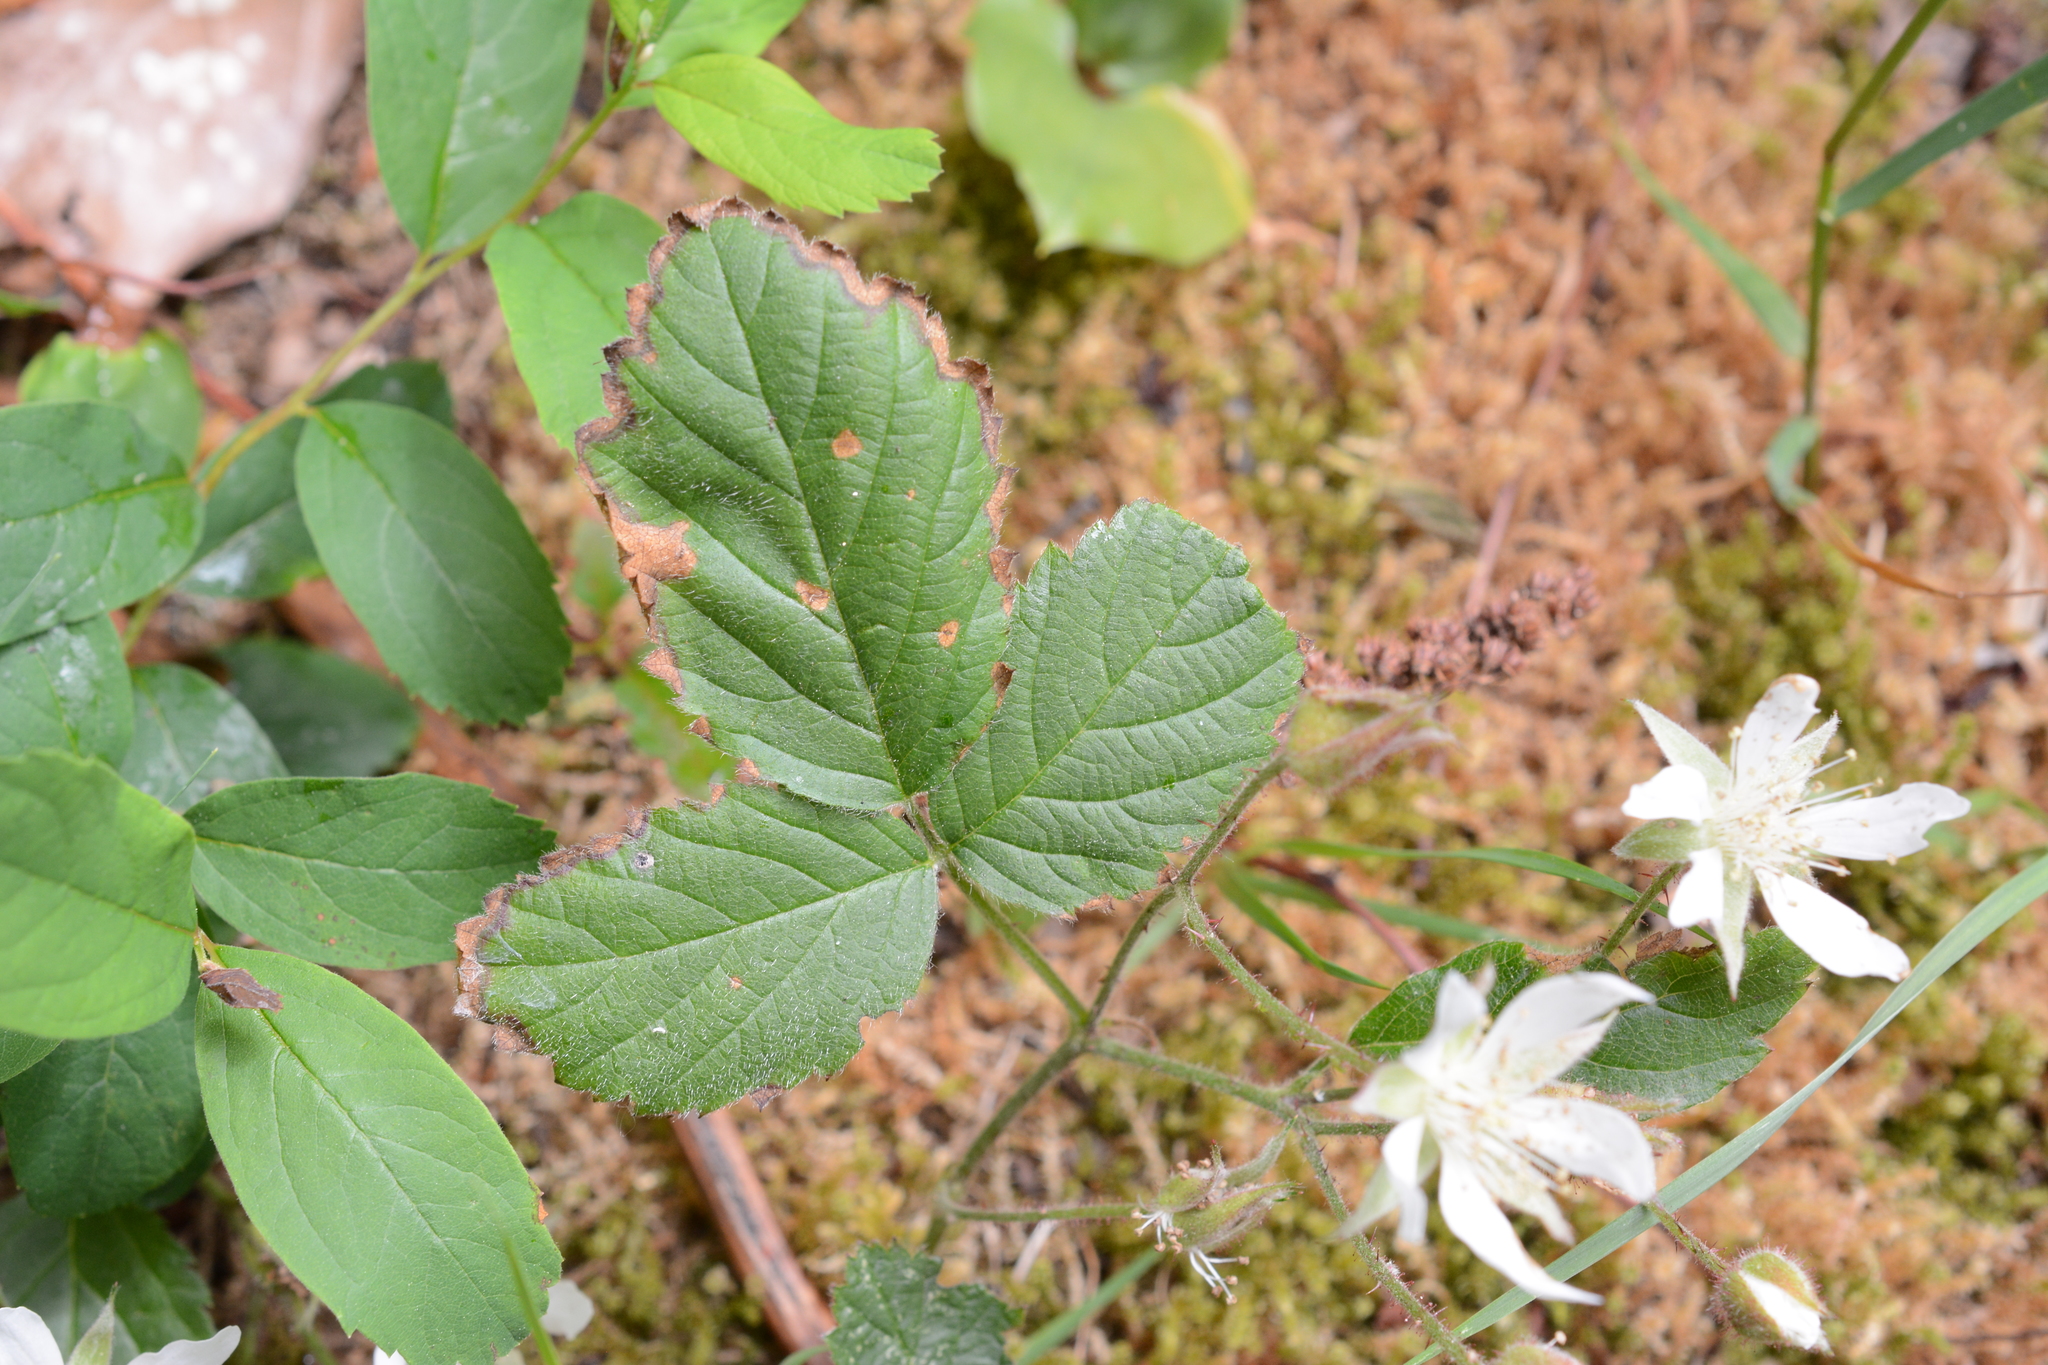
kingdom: Plantae
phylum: Tracheophyta
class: Magnoliopsida
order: Rosales
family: Rosaceae
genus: Rubus
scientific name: Rubus ursinus
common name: Pacific blackberry
